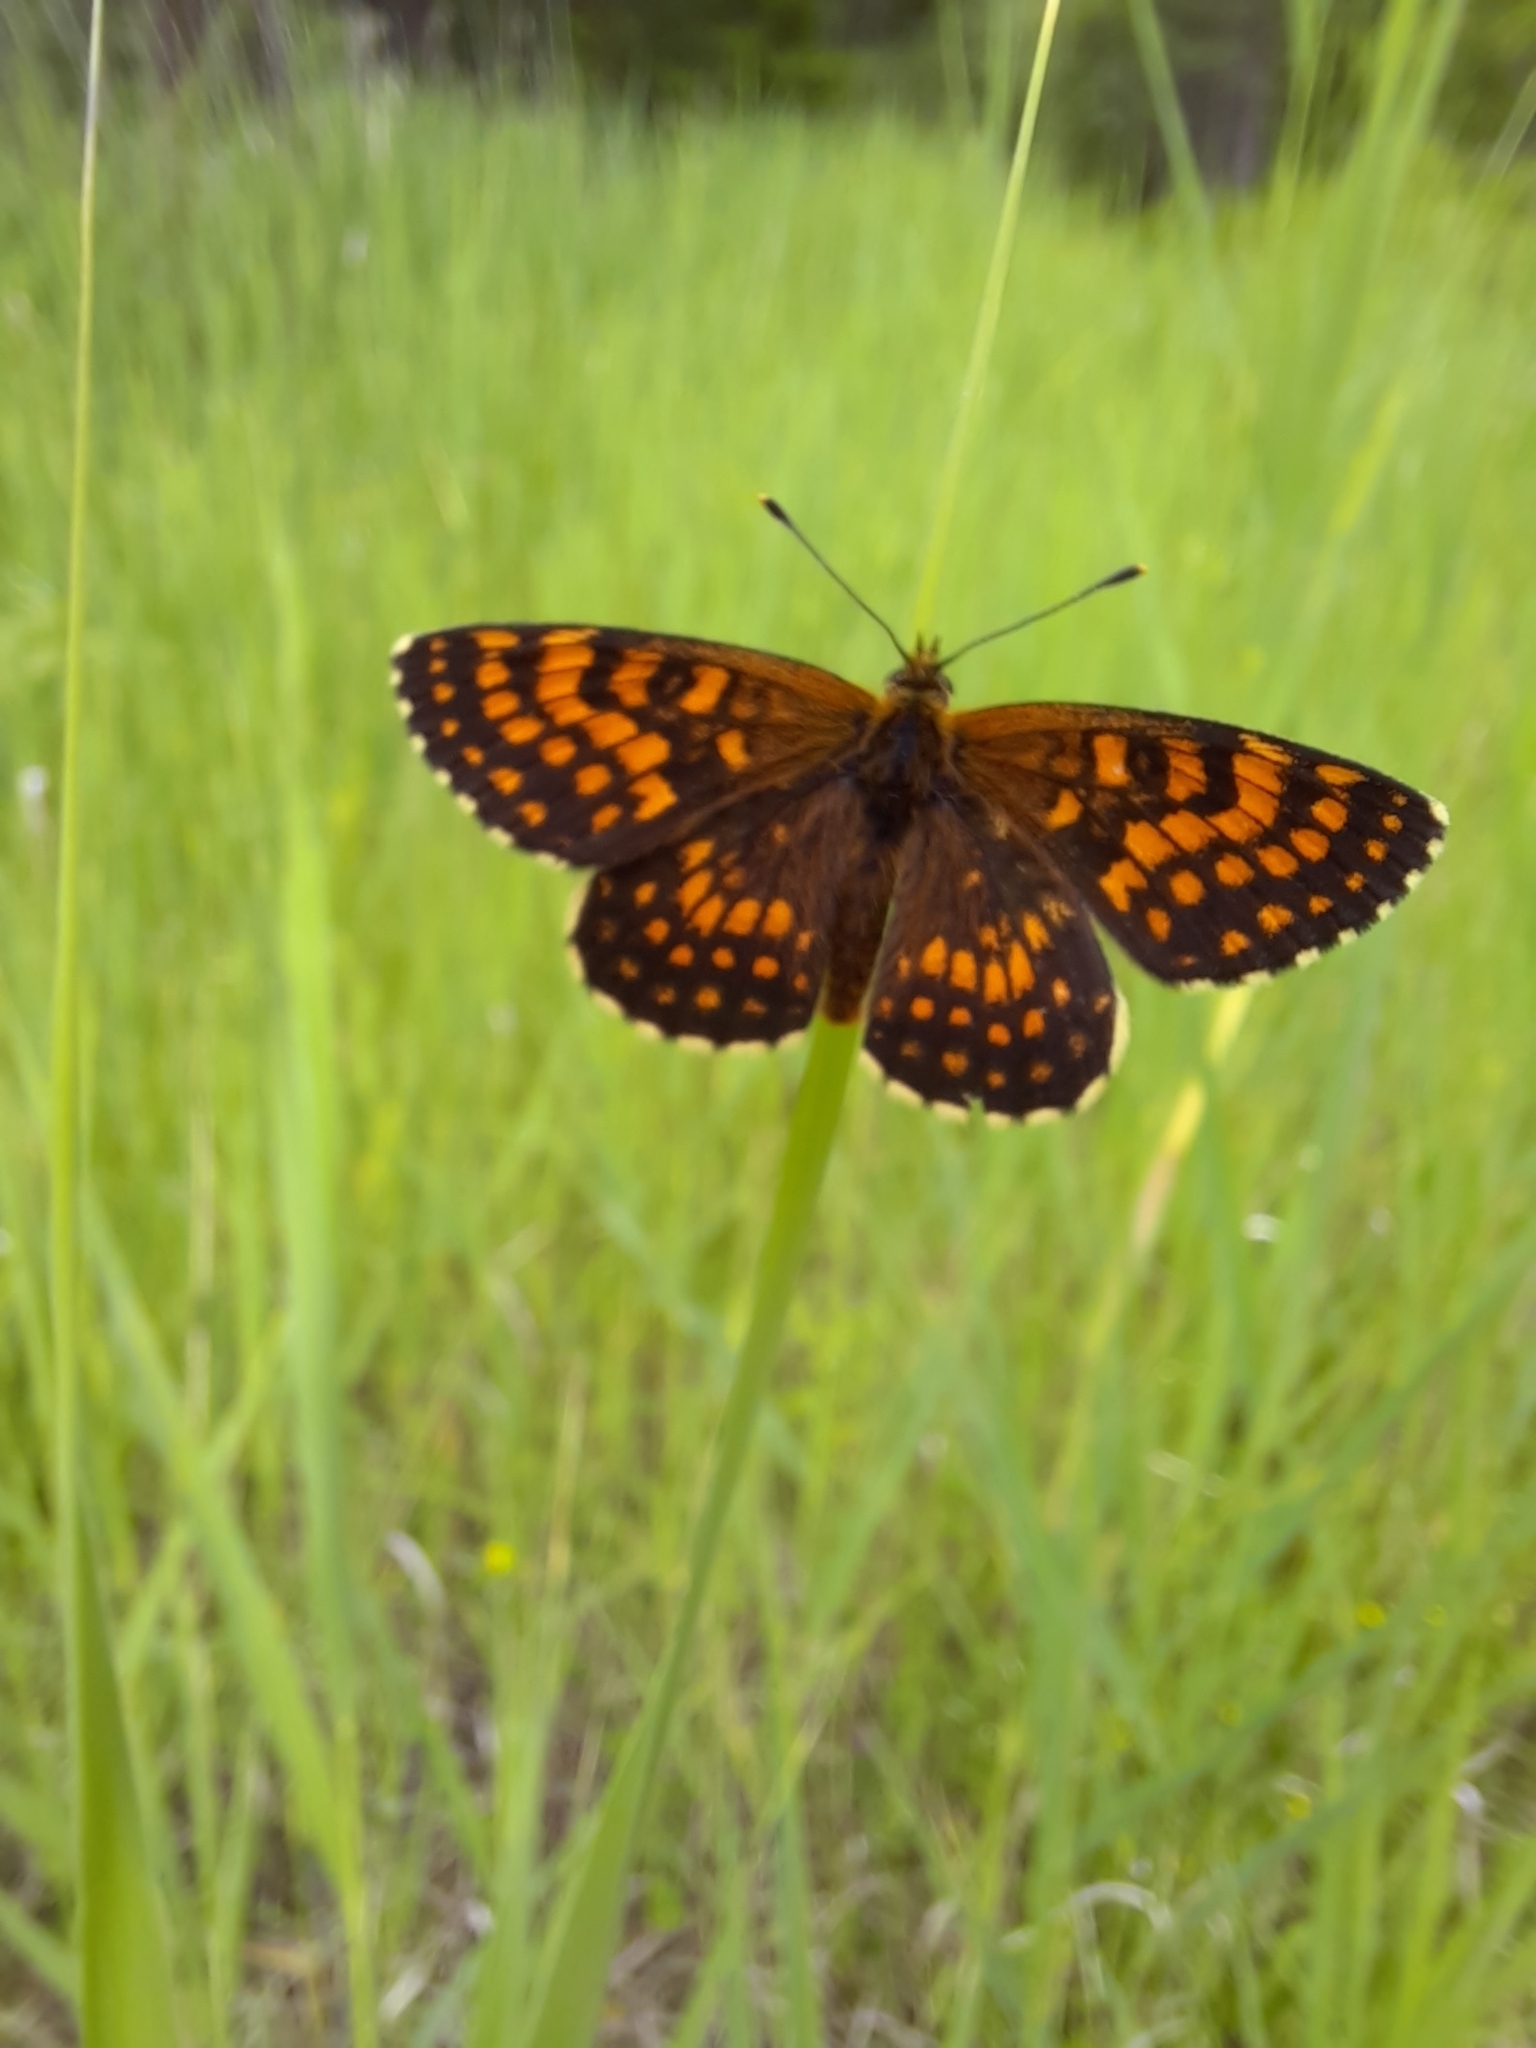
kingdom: Animalia
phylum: Arthropoda
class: Insecta
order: Lepidoptera
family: Nymphalidae
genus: Melitaea
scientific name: Melitaea athalia
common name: Heath fritillary
